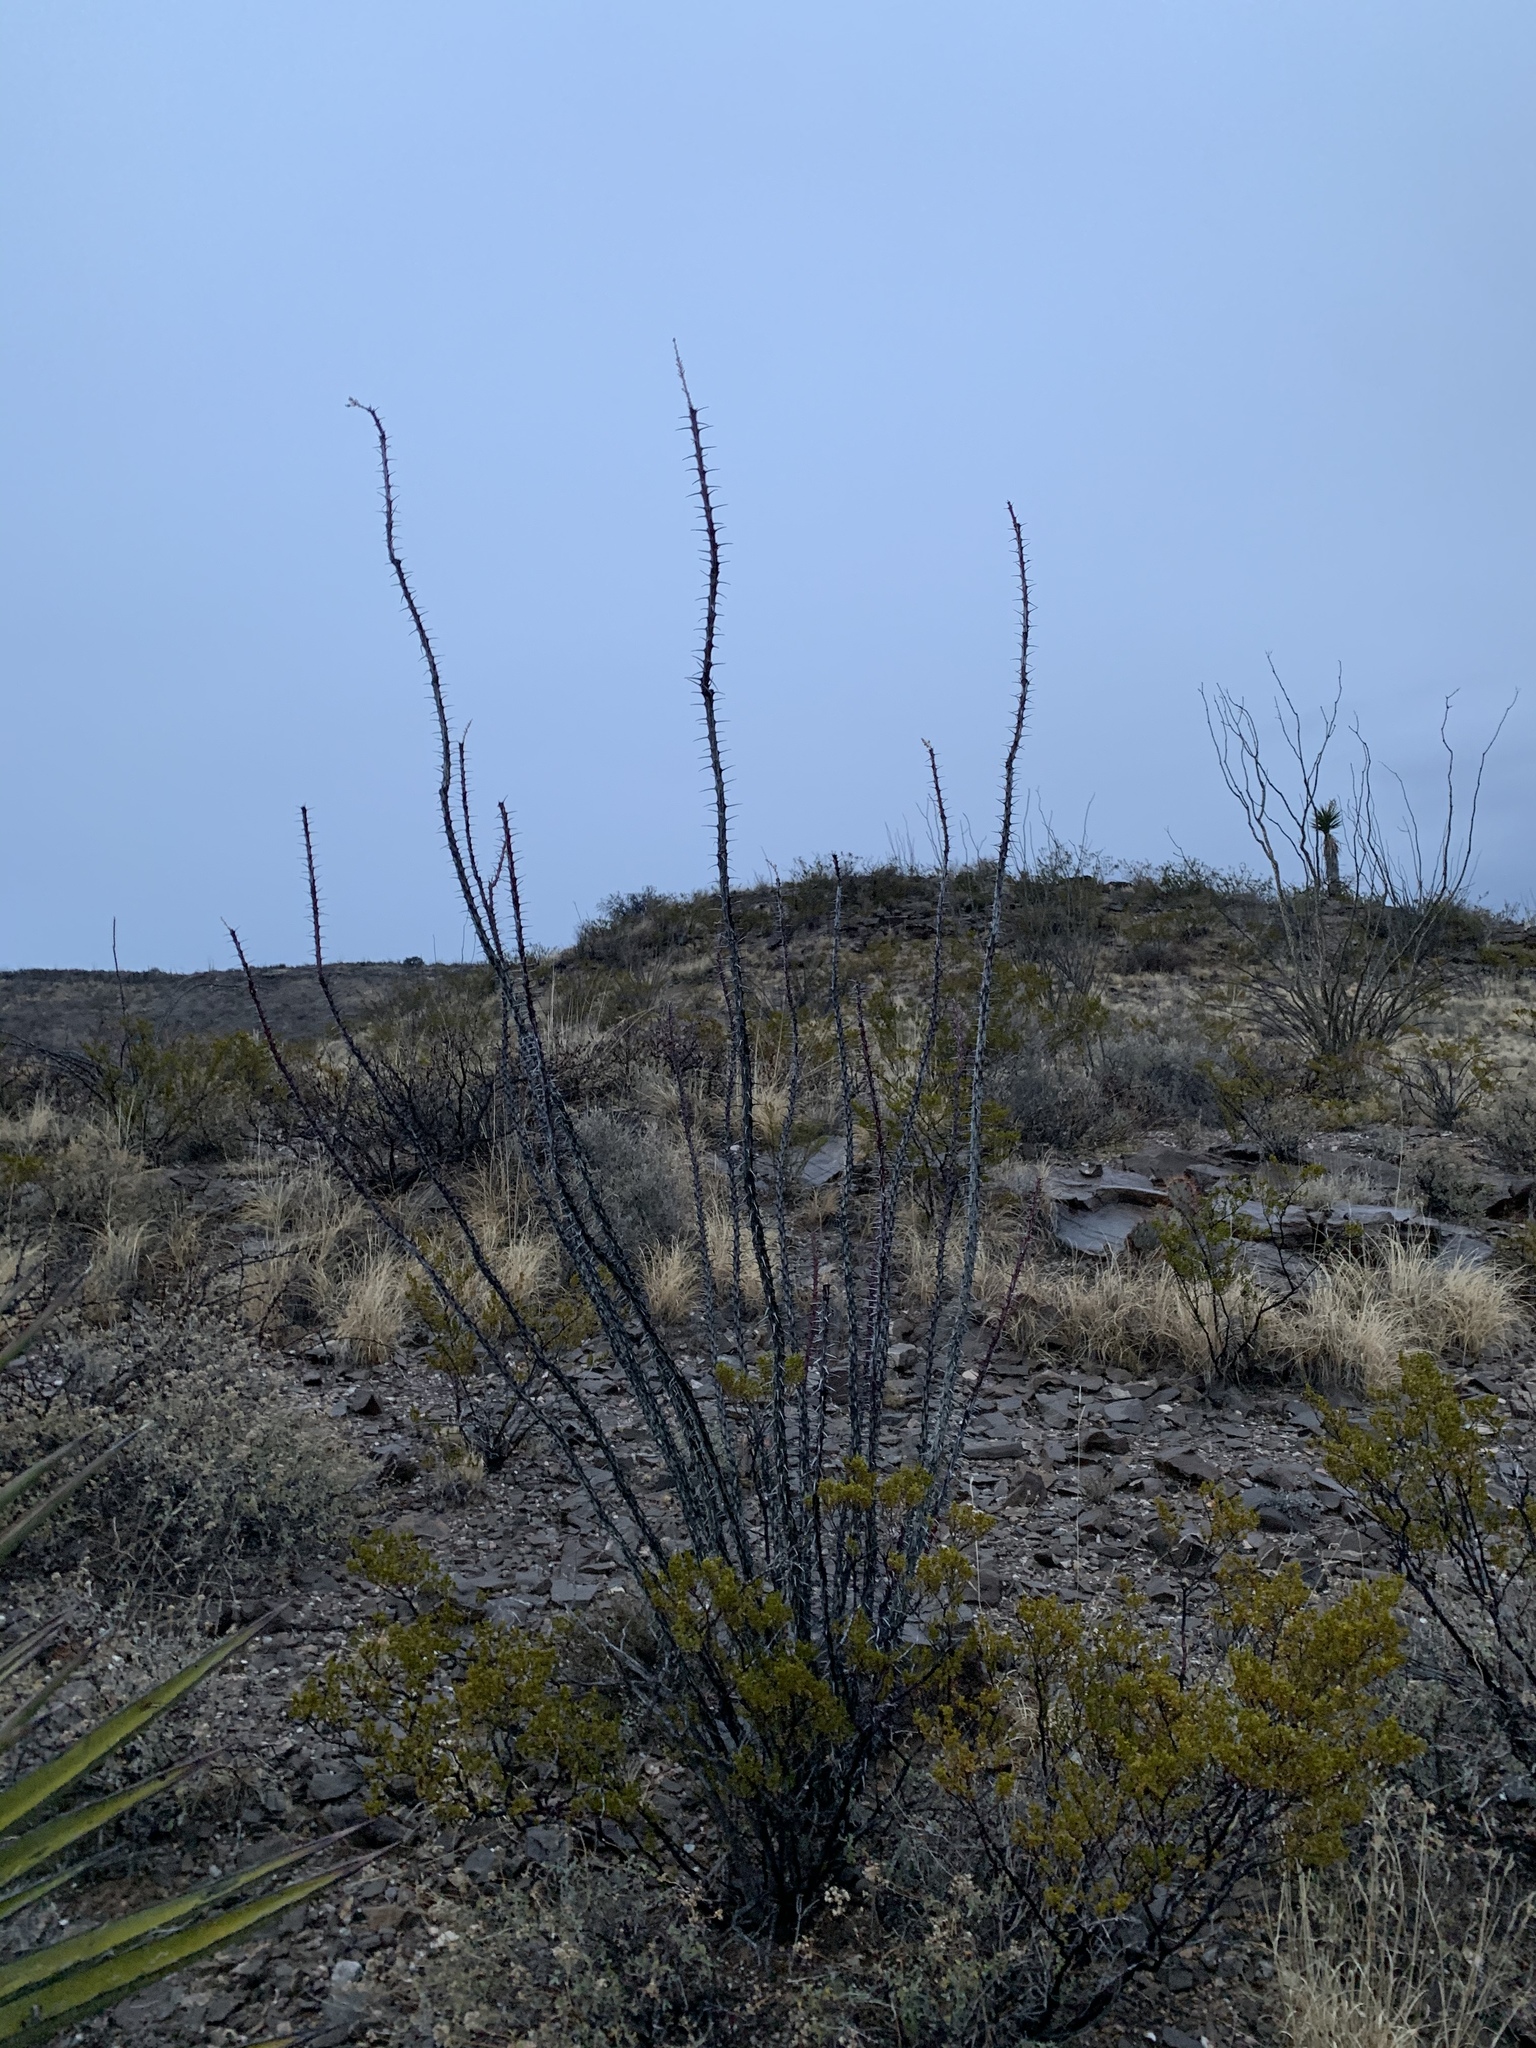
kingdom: Plantae
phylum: Tracheophyta
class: Magnoliopsida
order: Ericales
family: Fouquieriaceae
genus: Fouquieria
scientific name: Fouquieria splendens
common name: Vine-cactus
